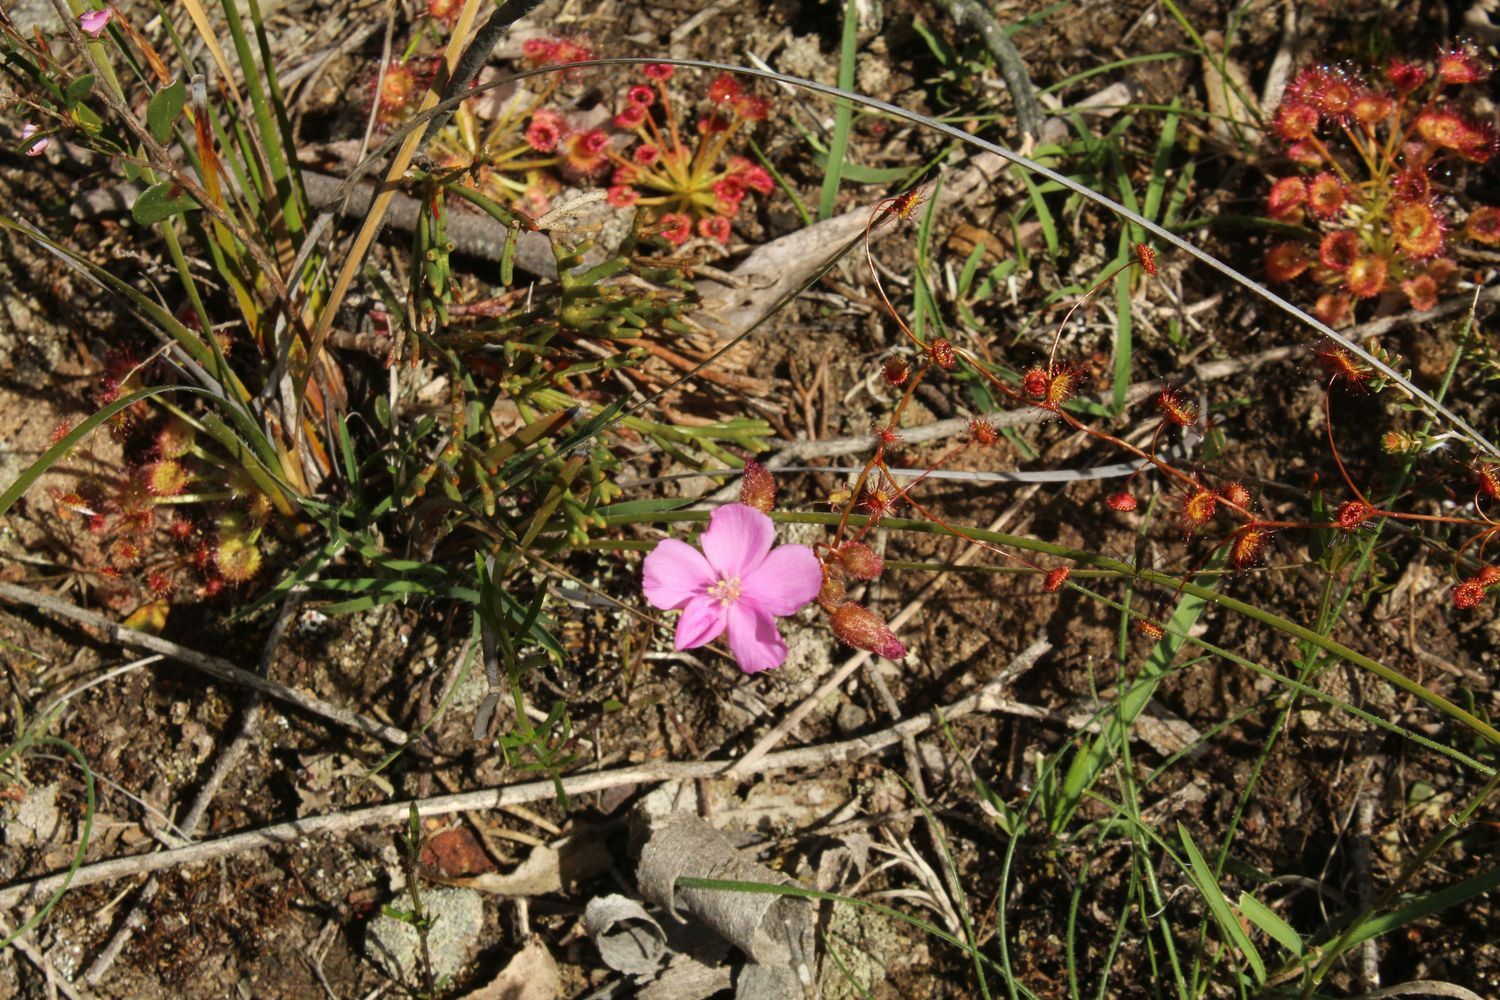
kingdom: Plantae
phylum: Tracheophyta
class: Magnoliopsida
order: Caryophyllales
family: Droseraceae
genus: Drosera
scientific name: Drosera
